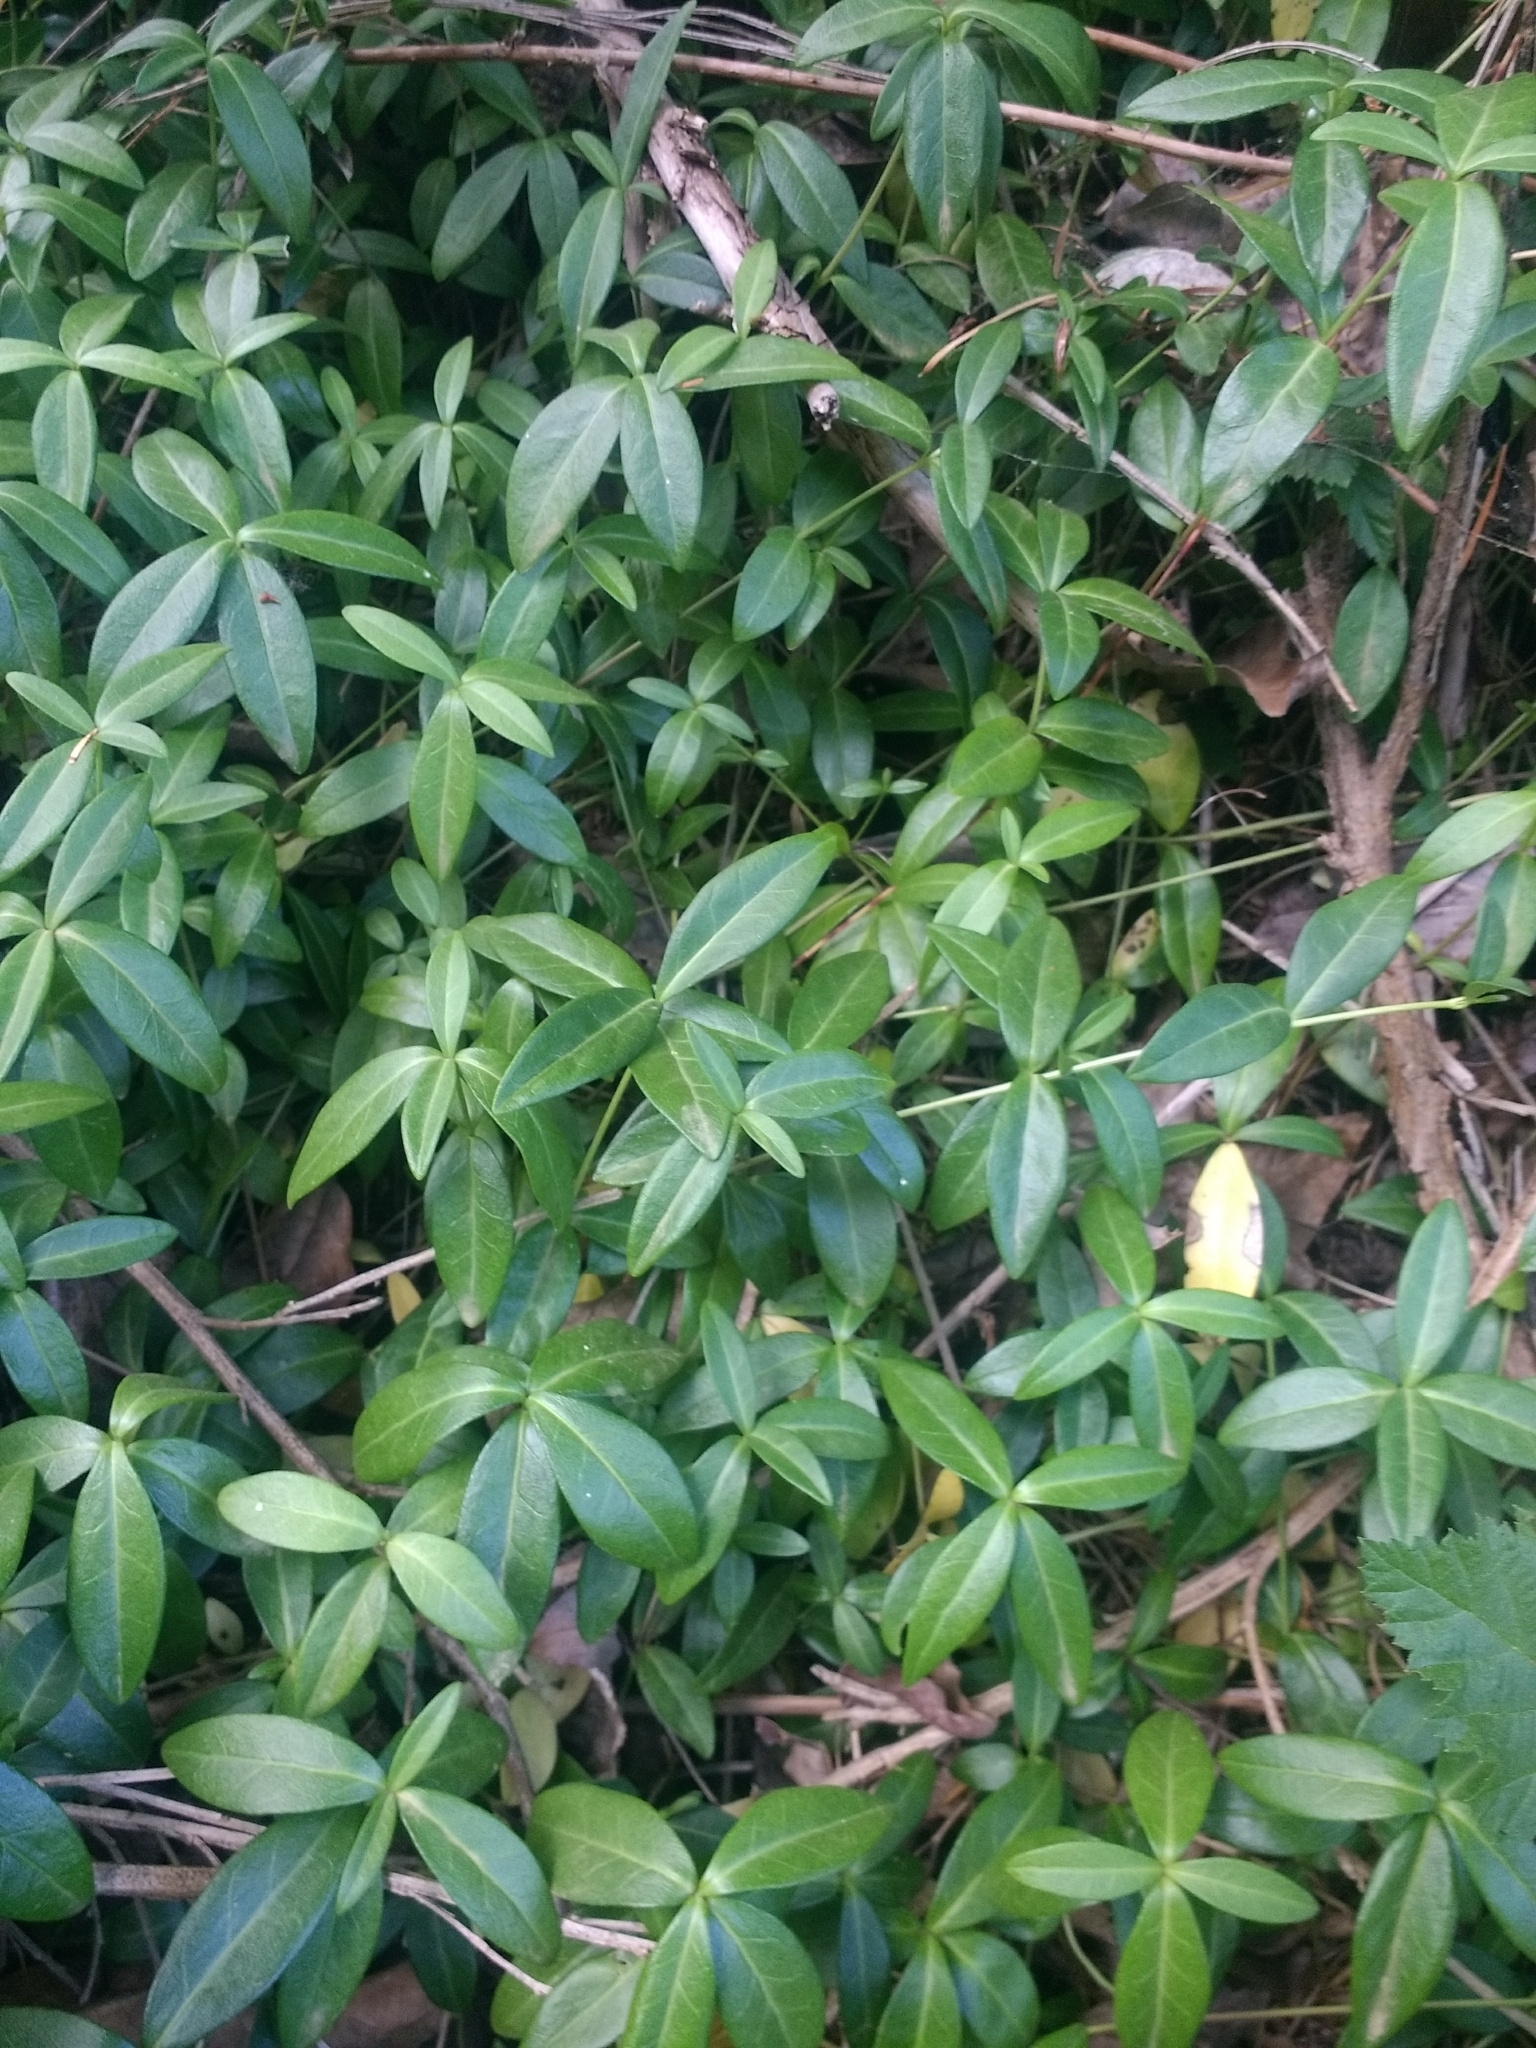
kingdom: Plantae
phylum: Tracheophyta
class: Magnoliopsida
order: Gentianales
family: Apocynaceae
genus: Vinca
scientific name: Vinca minor
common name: Lesser periwinkle
